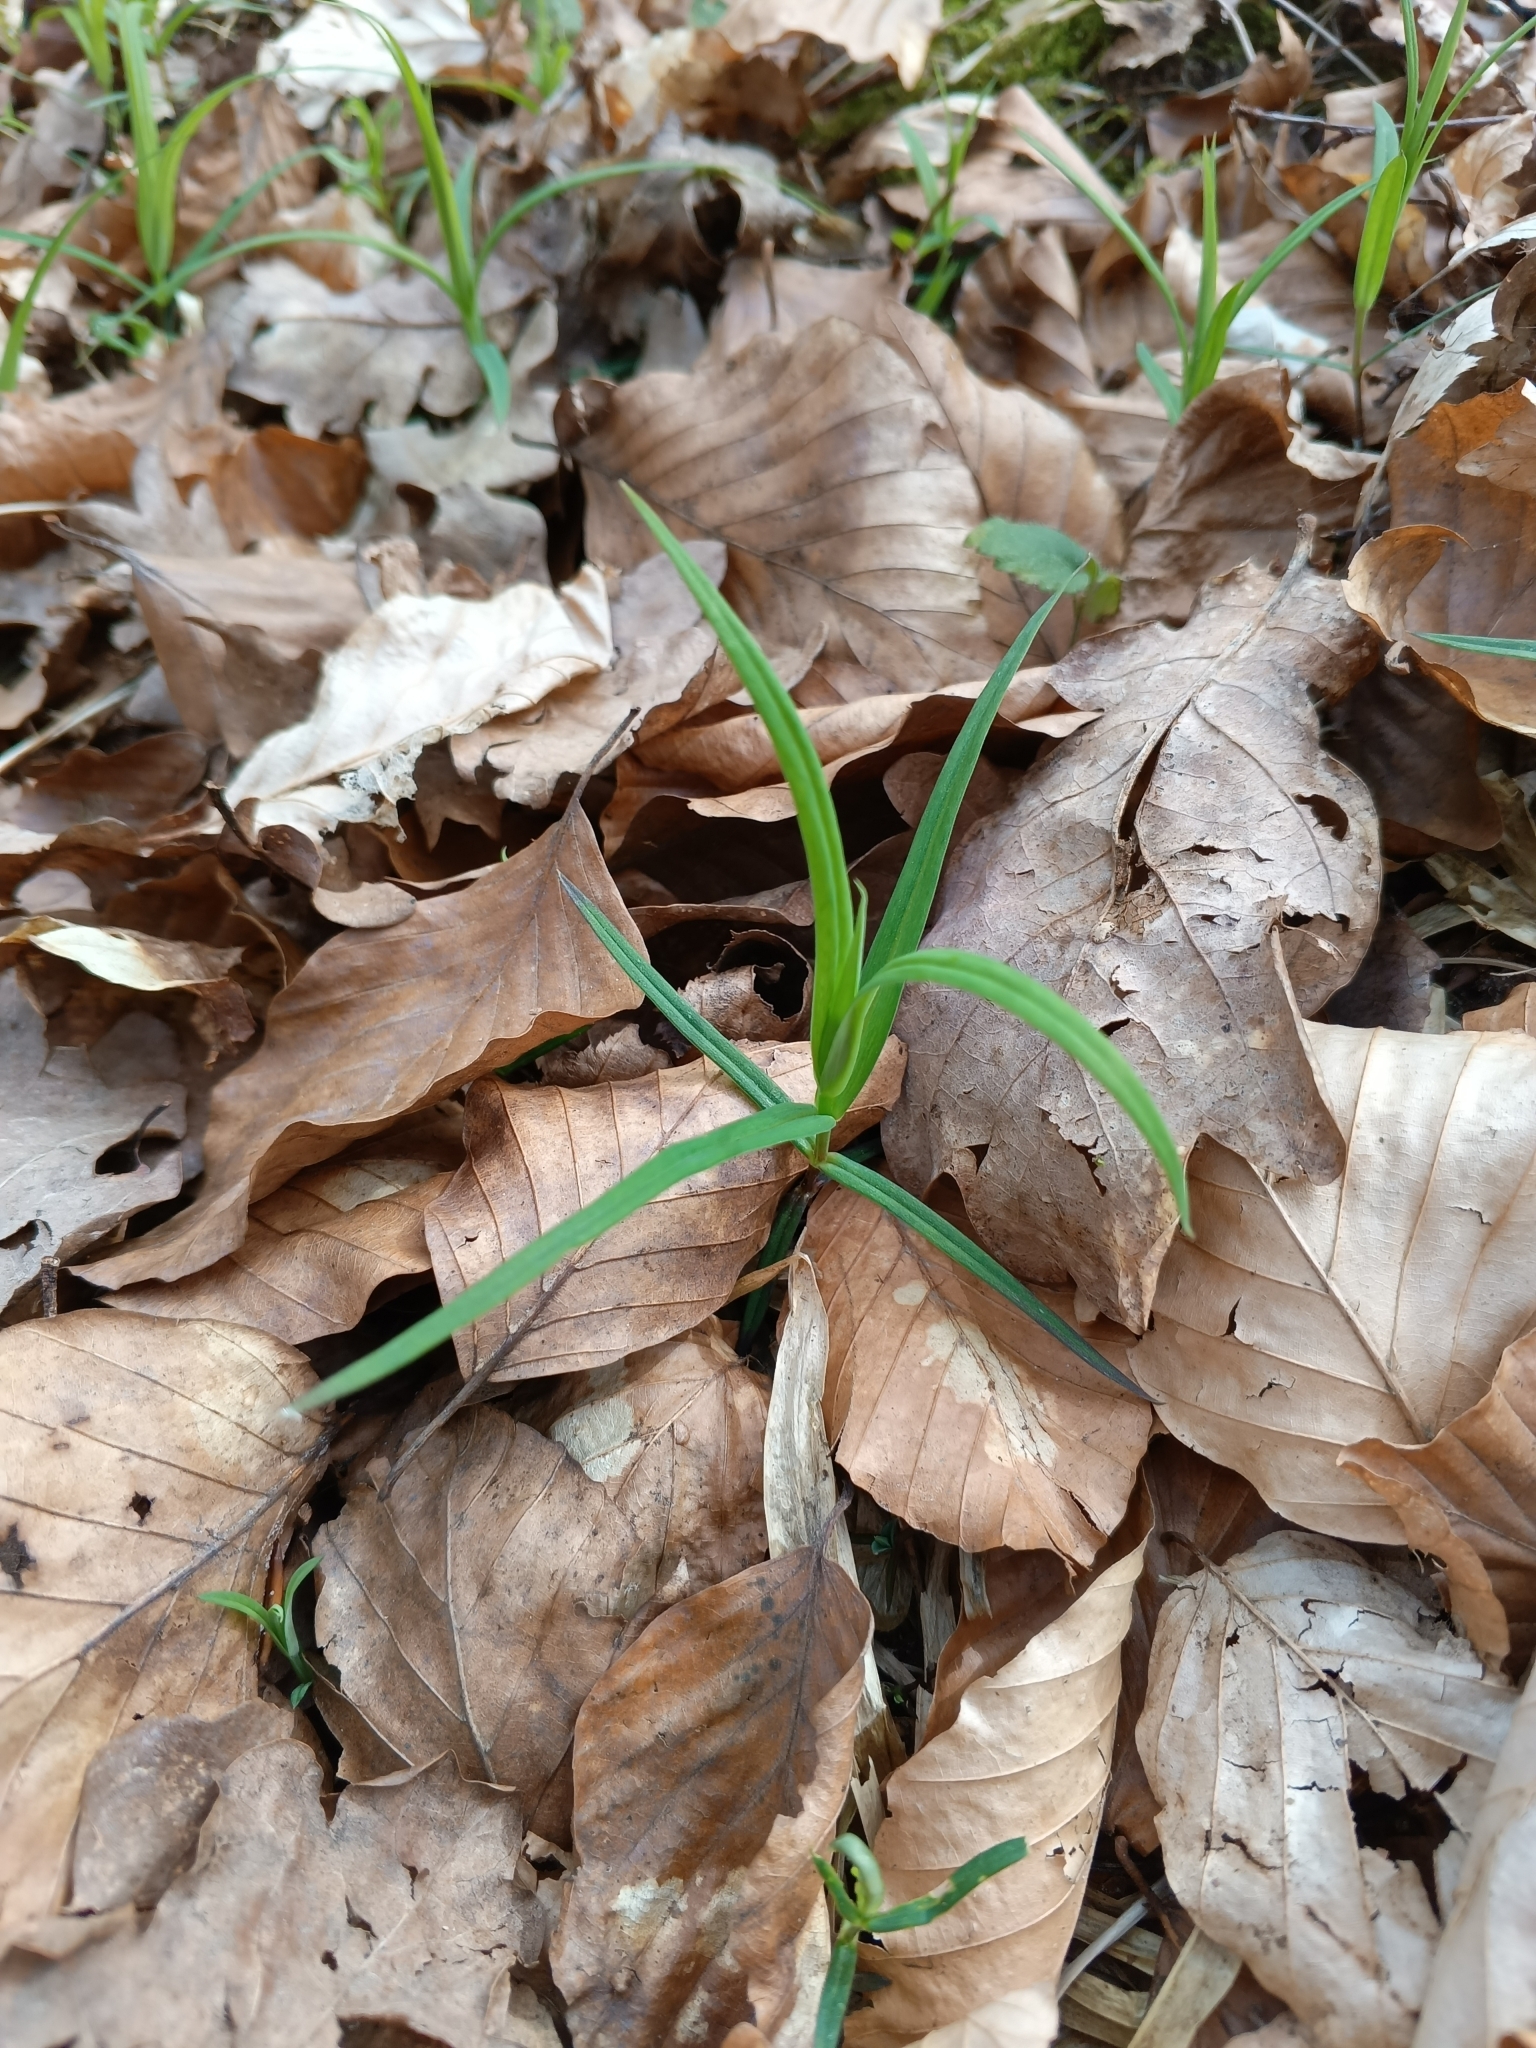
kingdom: Plantae
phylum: Tracheophyta
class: Magnoliopsida
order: Caryophyllales
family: Caryophyllaceae
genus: Rabelera
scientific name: Rabelera holostea
